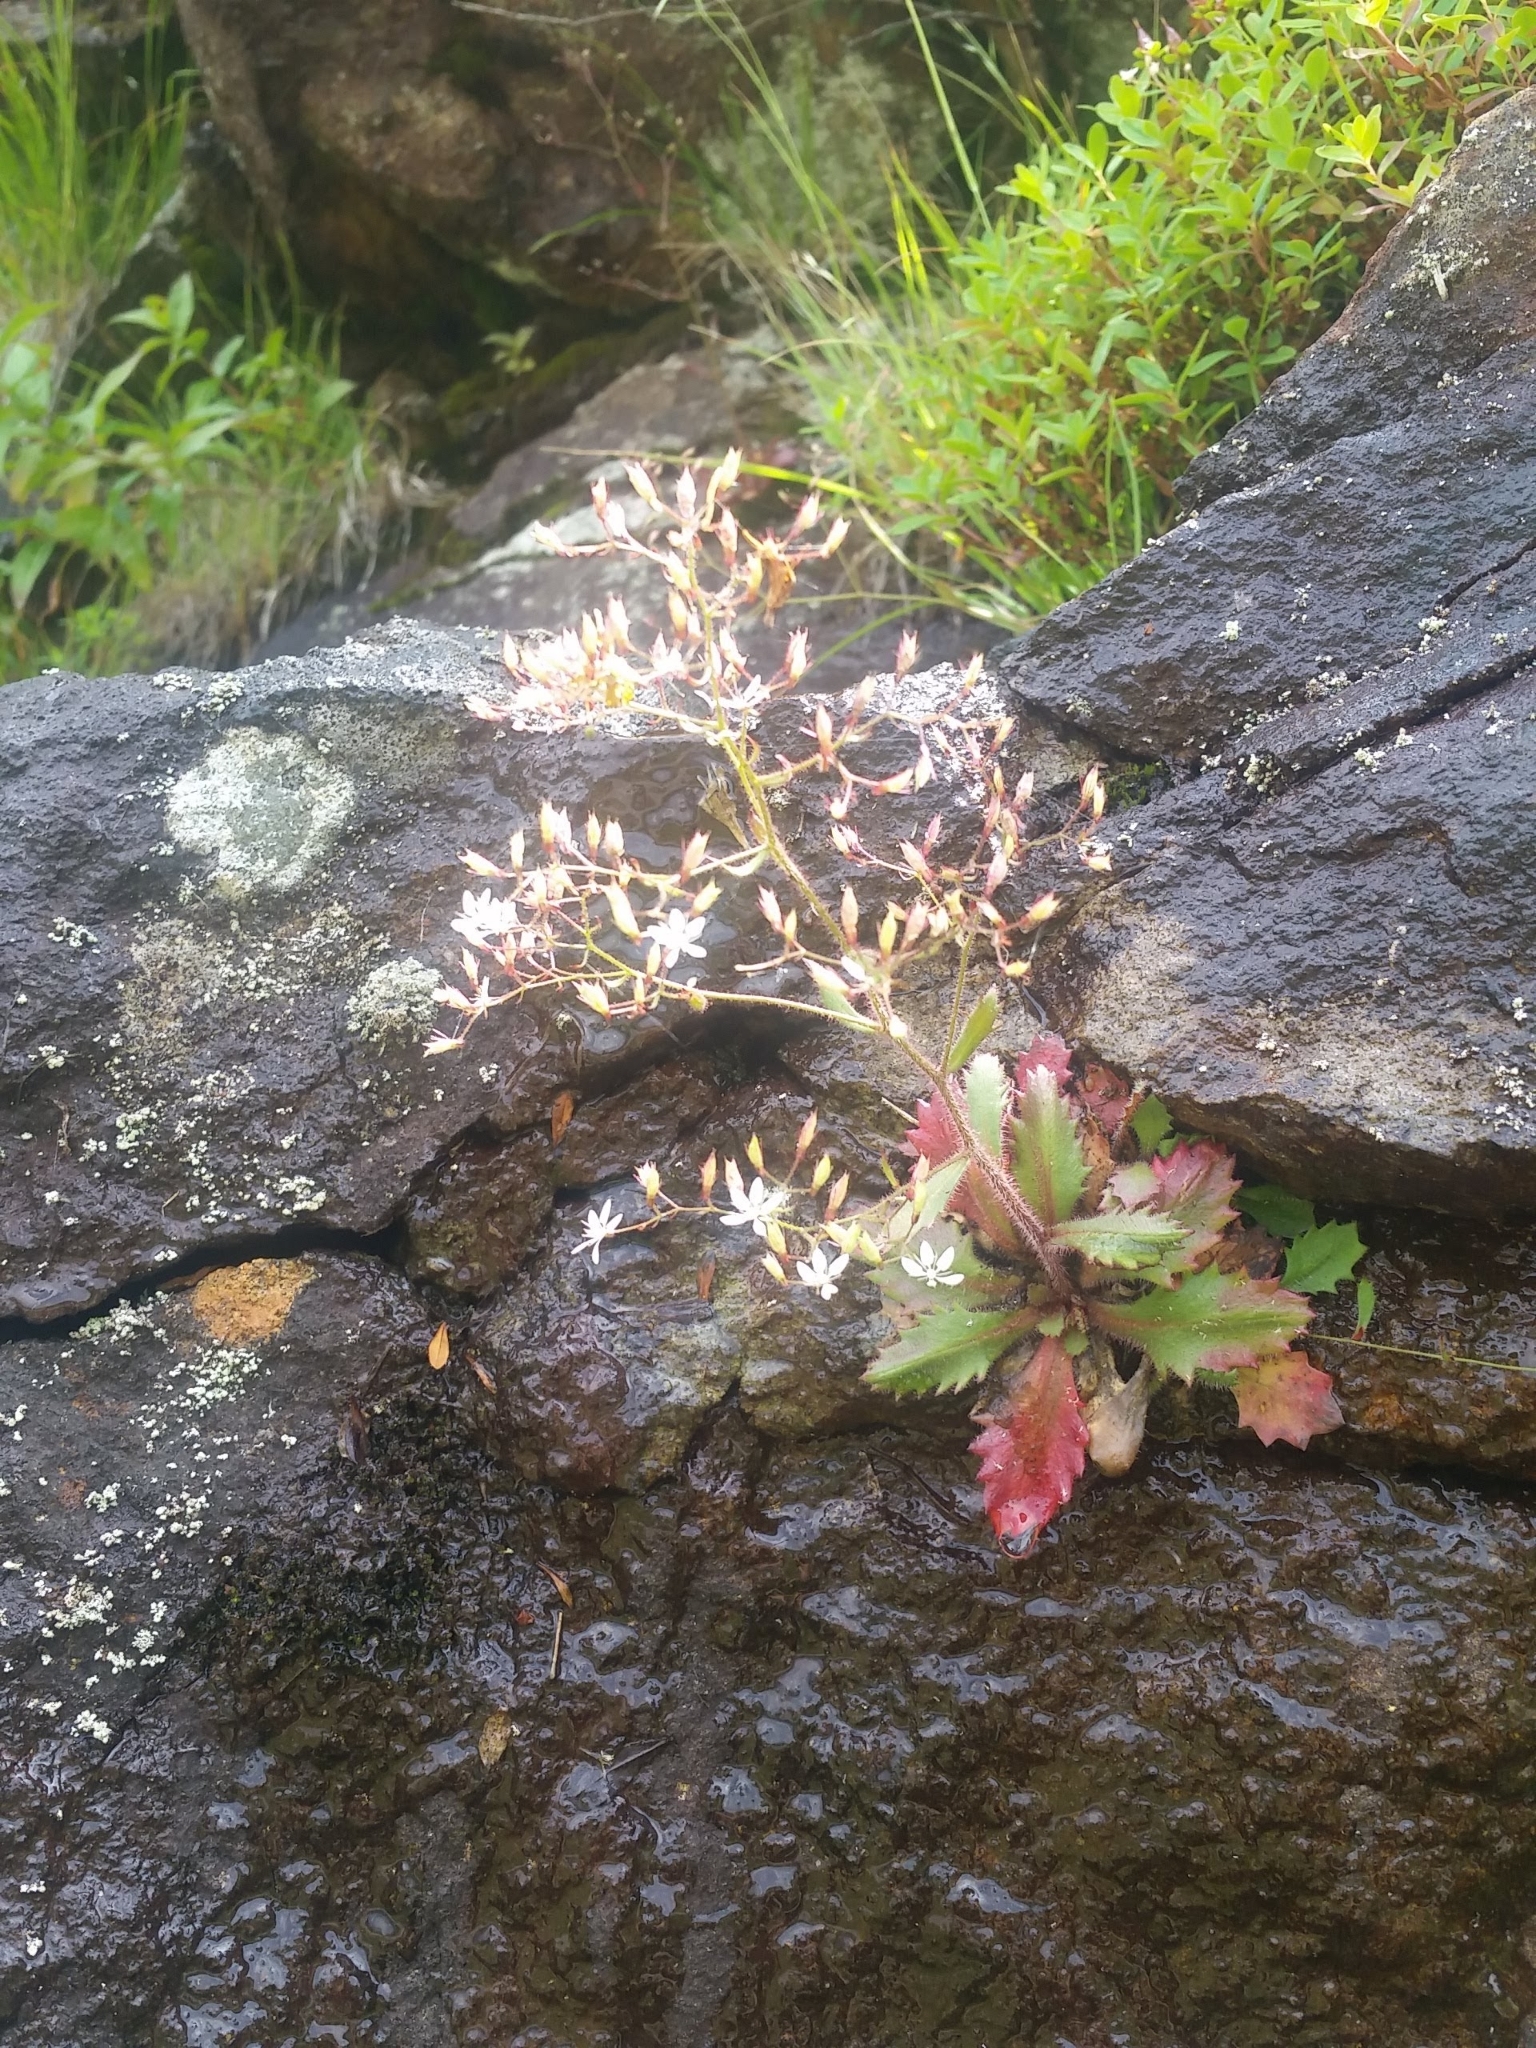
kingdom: Plantae
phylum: Tracheophyta
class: Magnoliopsida
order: Saxifragales
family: Saxifragaceae
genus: Micranthes
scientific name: Micranthes petiolaris
